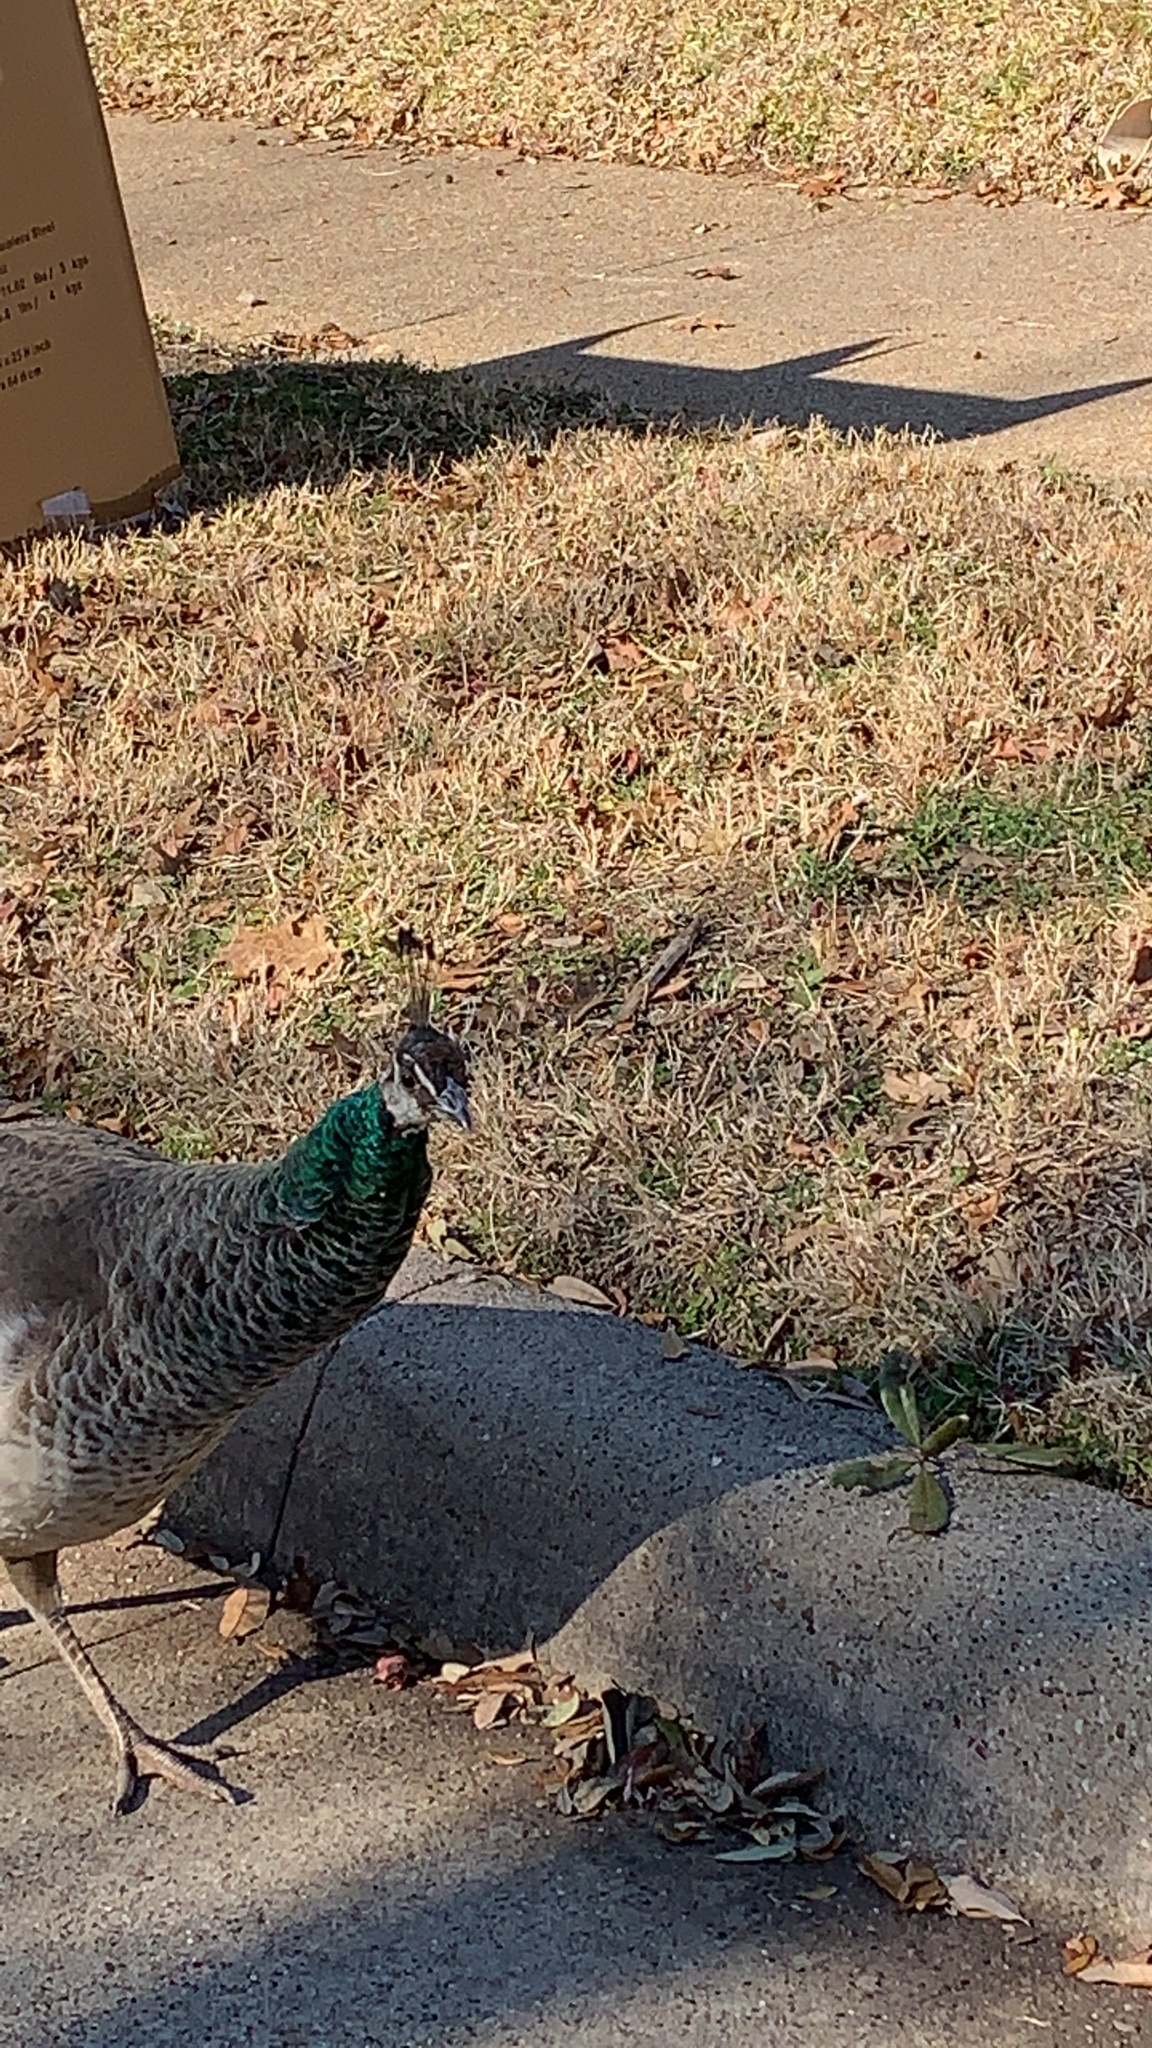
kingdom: Animalia
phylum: Chordata
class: Aves
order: Galliformes
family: Phasianidae
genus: Pavo
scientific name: Pavo cristatus
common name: Indian peafowl
